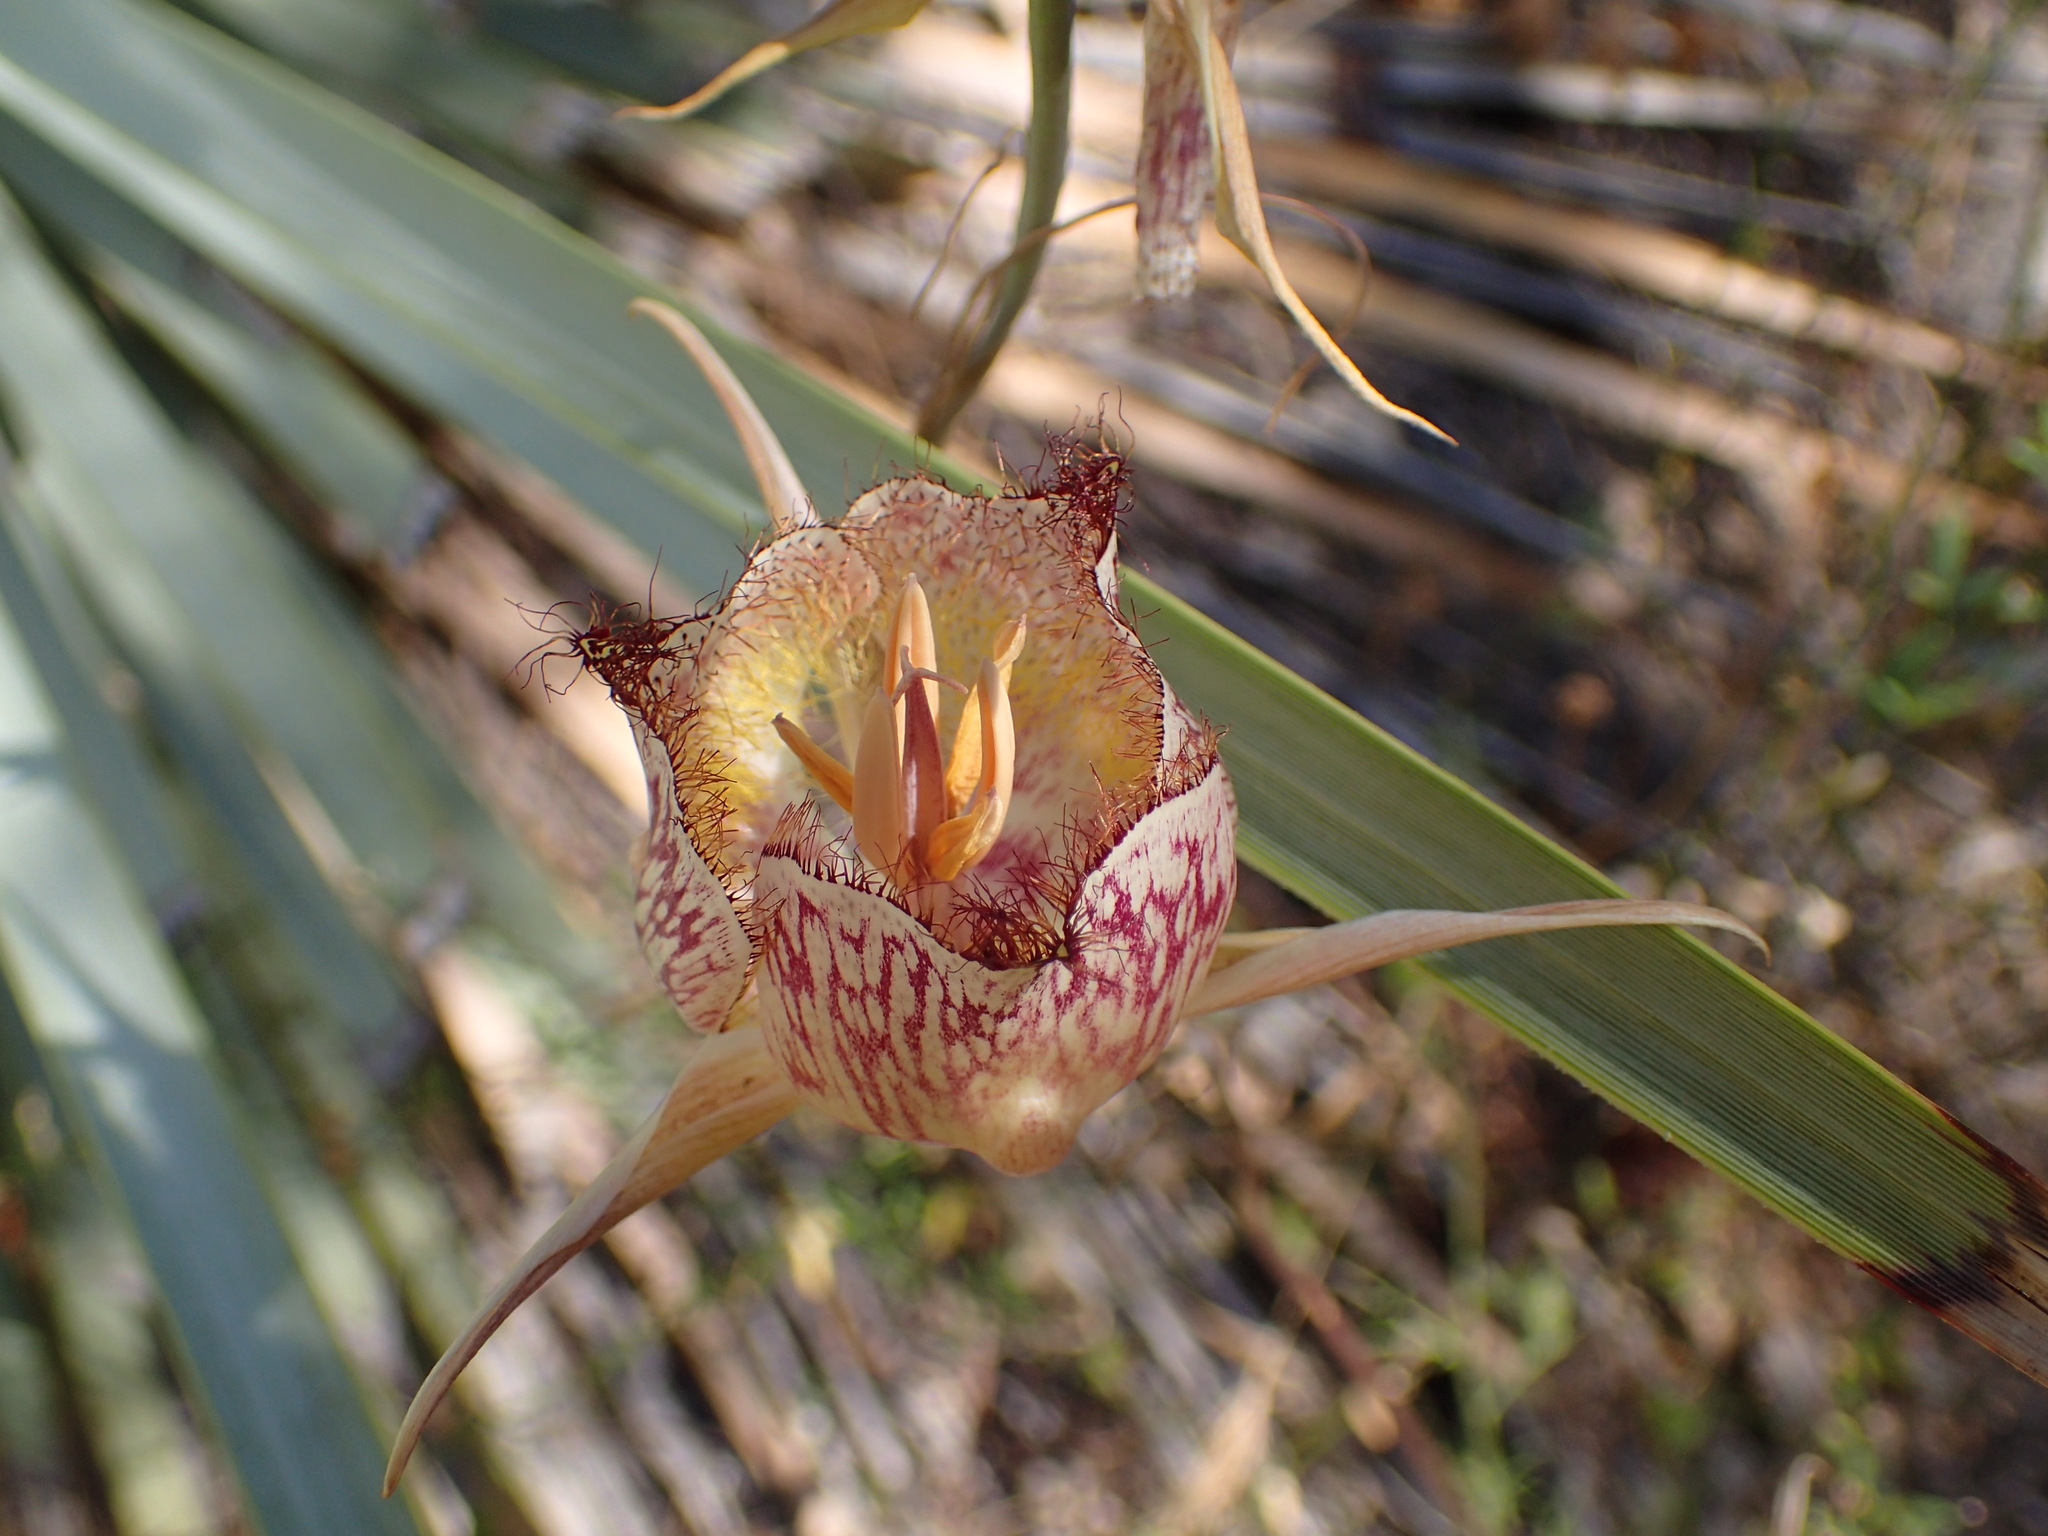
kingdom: Plantae
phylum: Tracheophyta
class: Liliopsida
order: Liliales
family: Liliaceae
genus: Calochortus
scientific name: Calochortus fimbriatus
